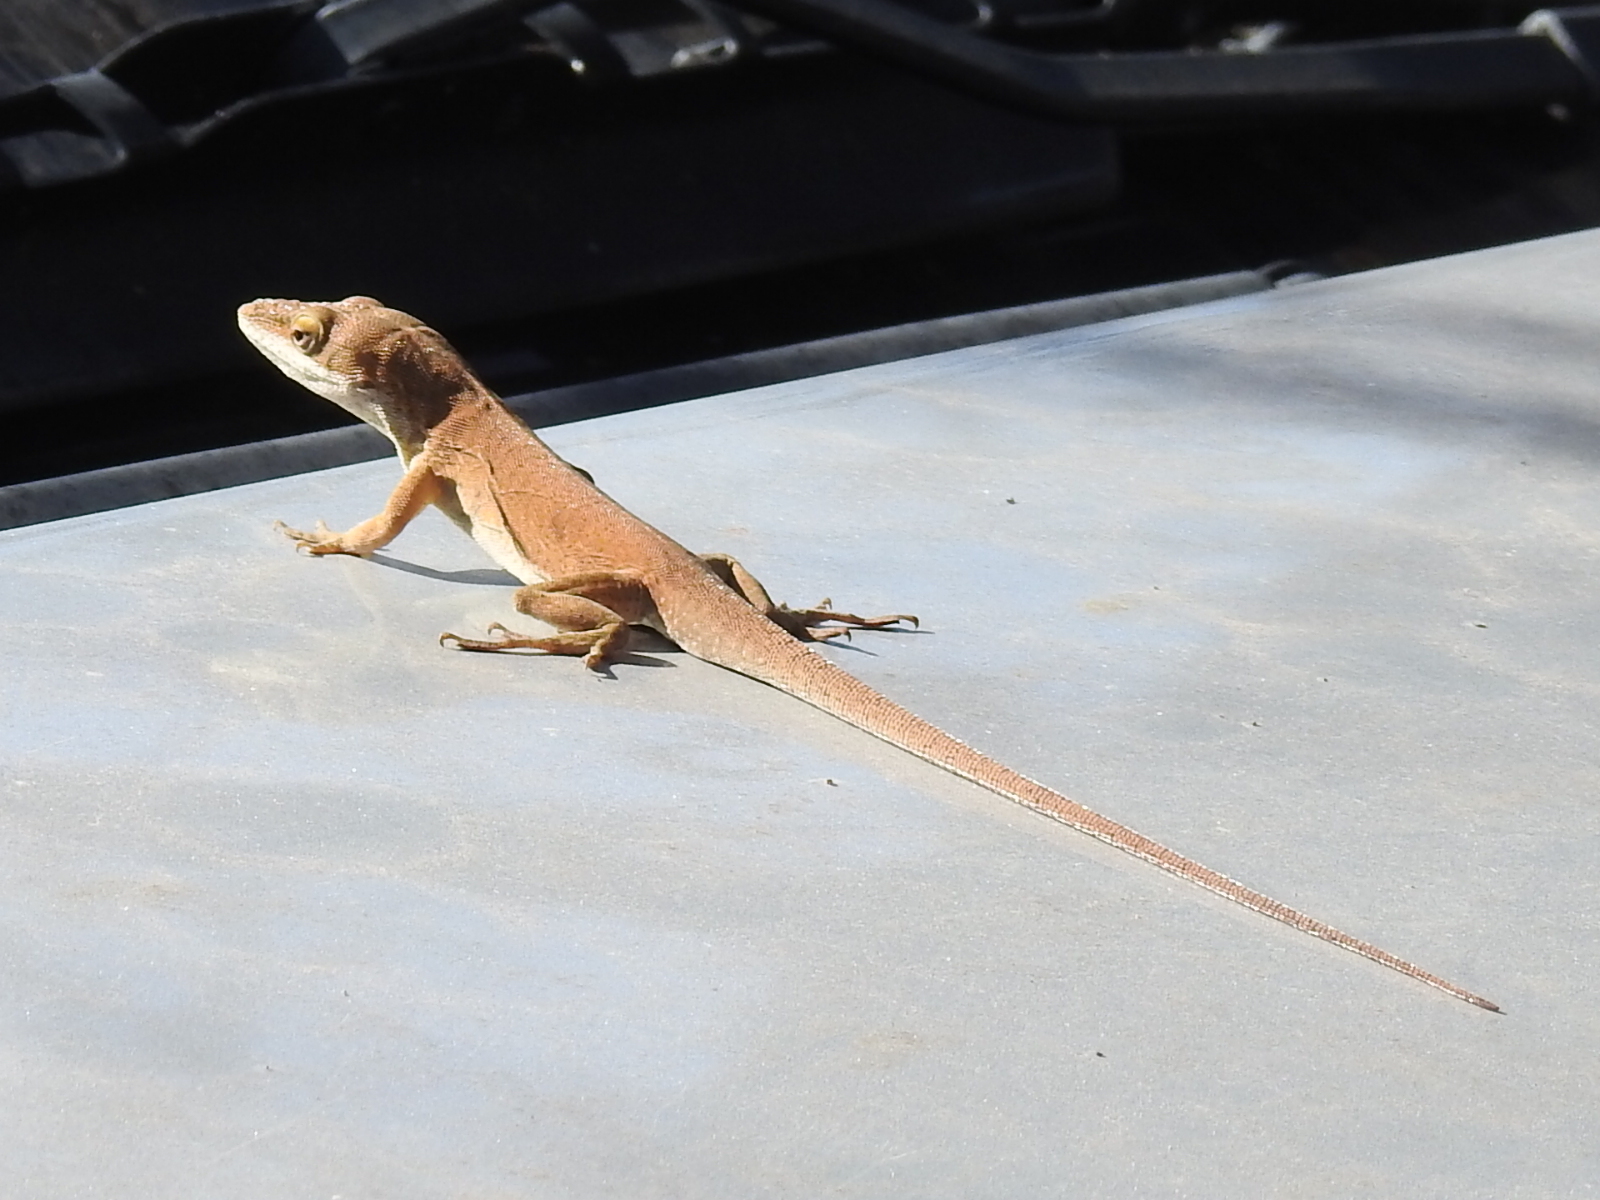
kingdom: Animalia
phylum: Chordata
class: Squamata
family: Dactyloidae
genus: Anolis
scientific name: Anolis carolinensis
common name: Green anole
